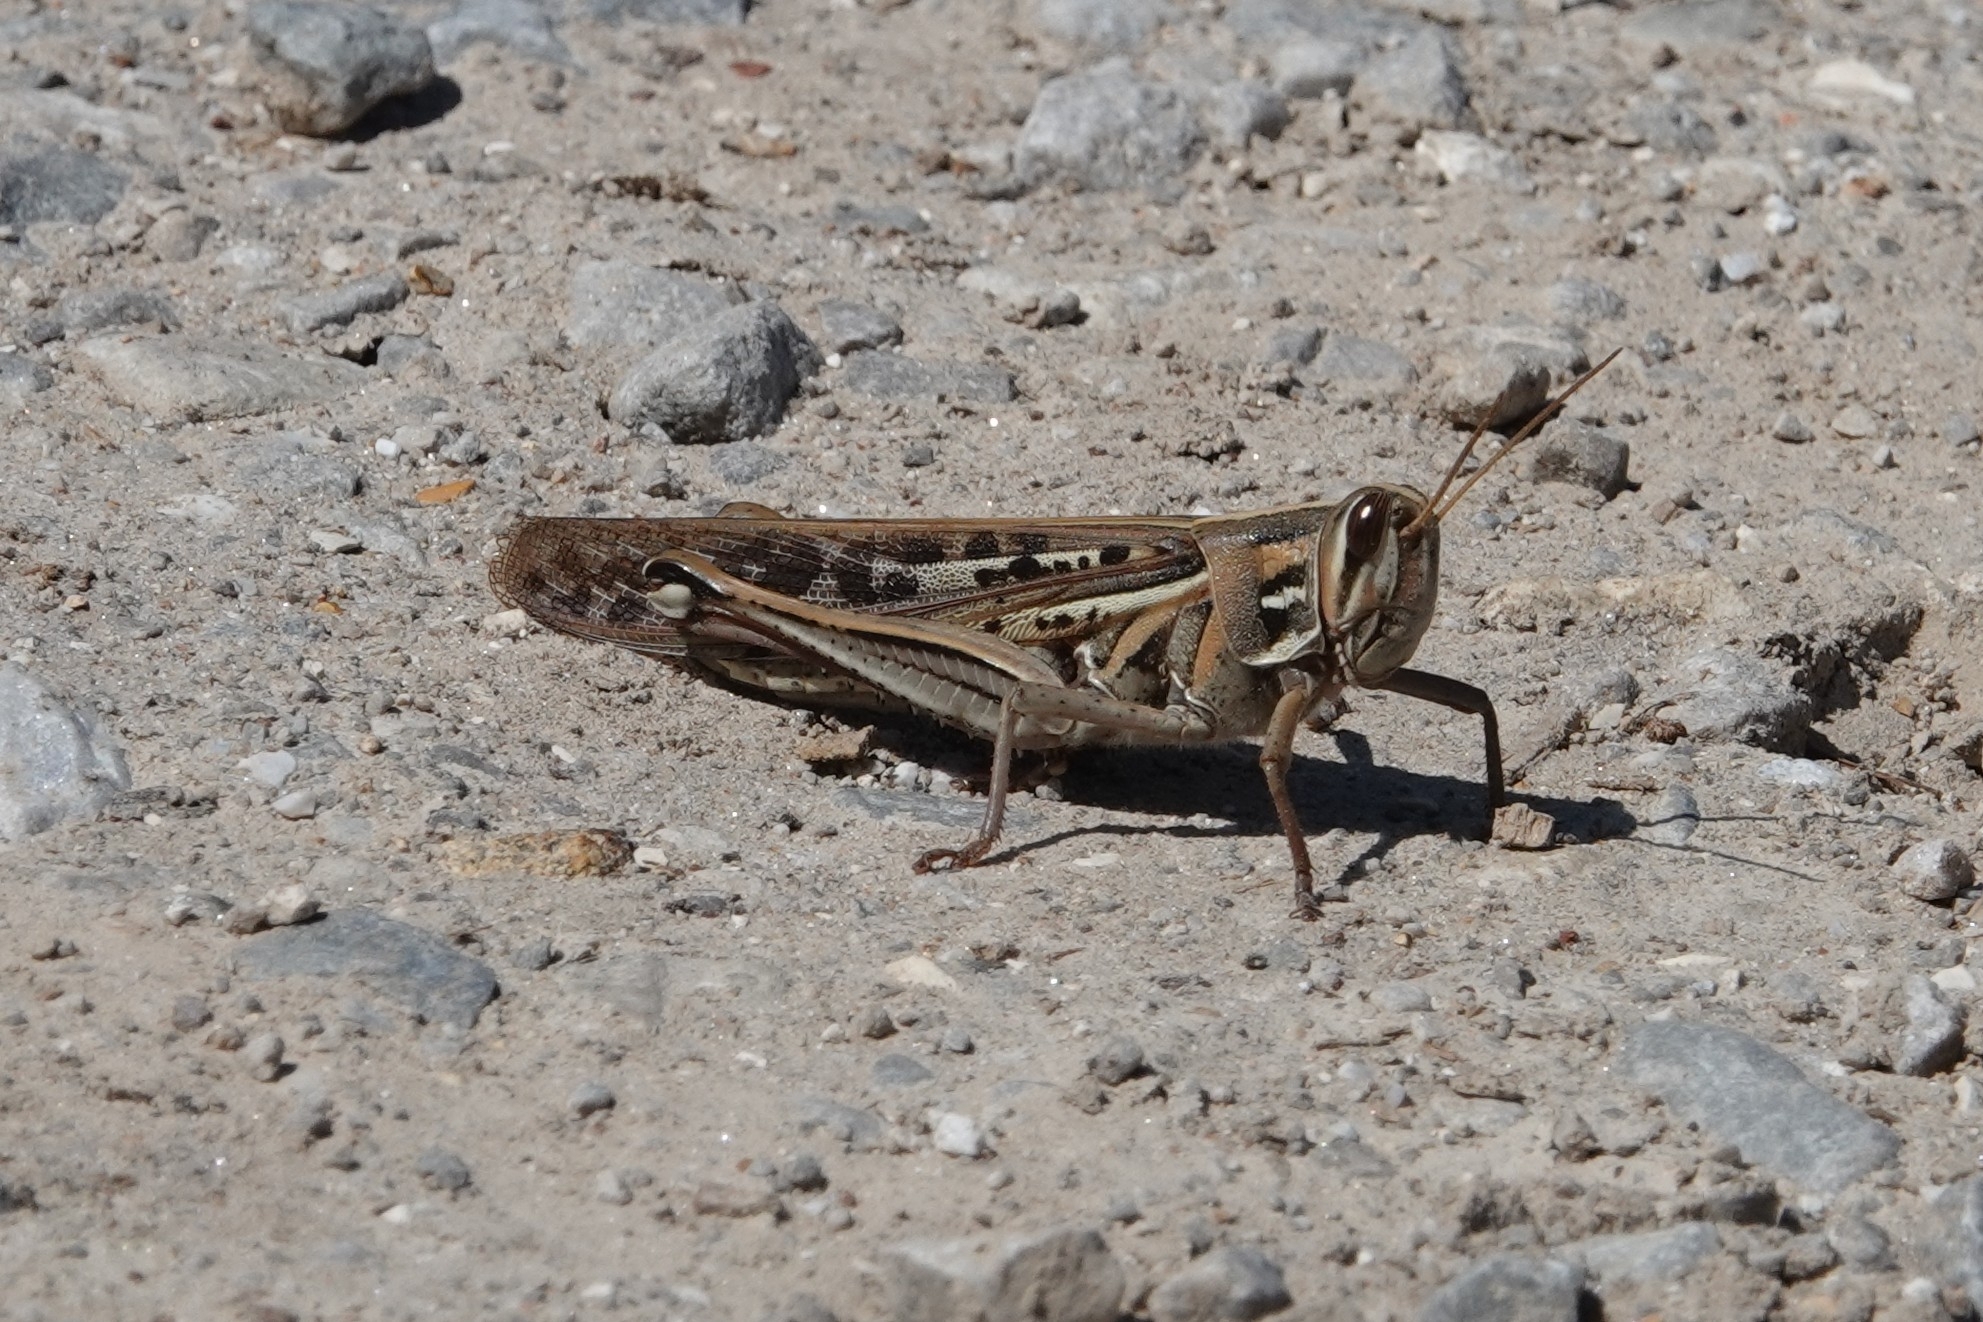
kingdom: Animalia
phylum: Arthropoda
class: Insecta
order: Orthoptera
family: Acrididae
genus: Schistocerca
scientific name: Schistocerca americana
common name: American bird locust
